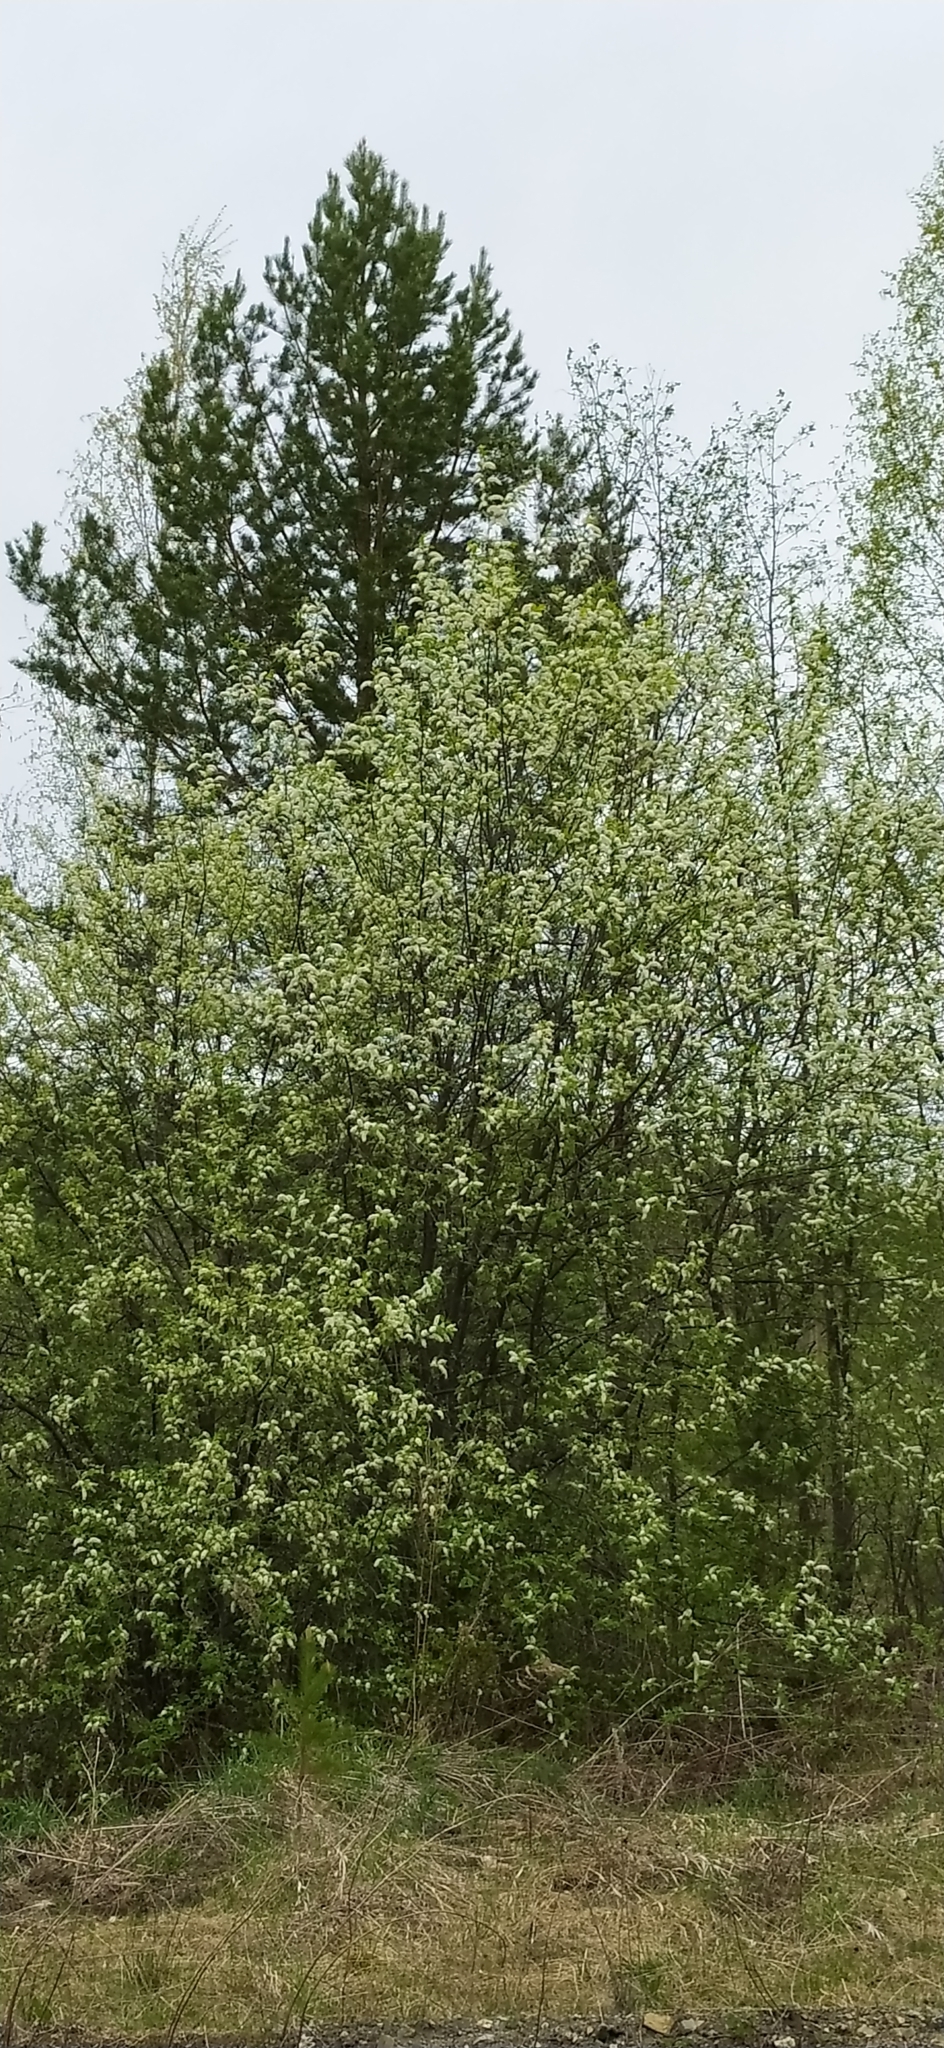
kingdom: Plantae
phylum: Tracheophyta
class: Magnoliopsida
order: Rosales
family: Rosaceae
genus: Prunus
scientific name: Prunus padus
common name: Bird cherry
